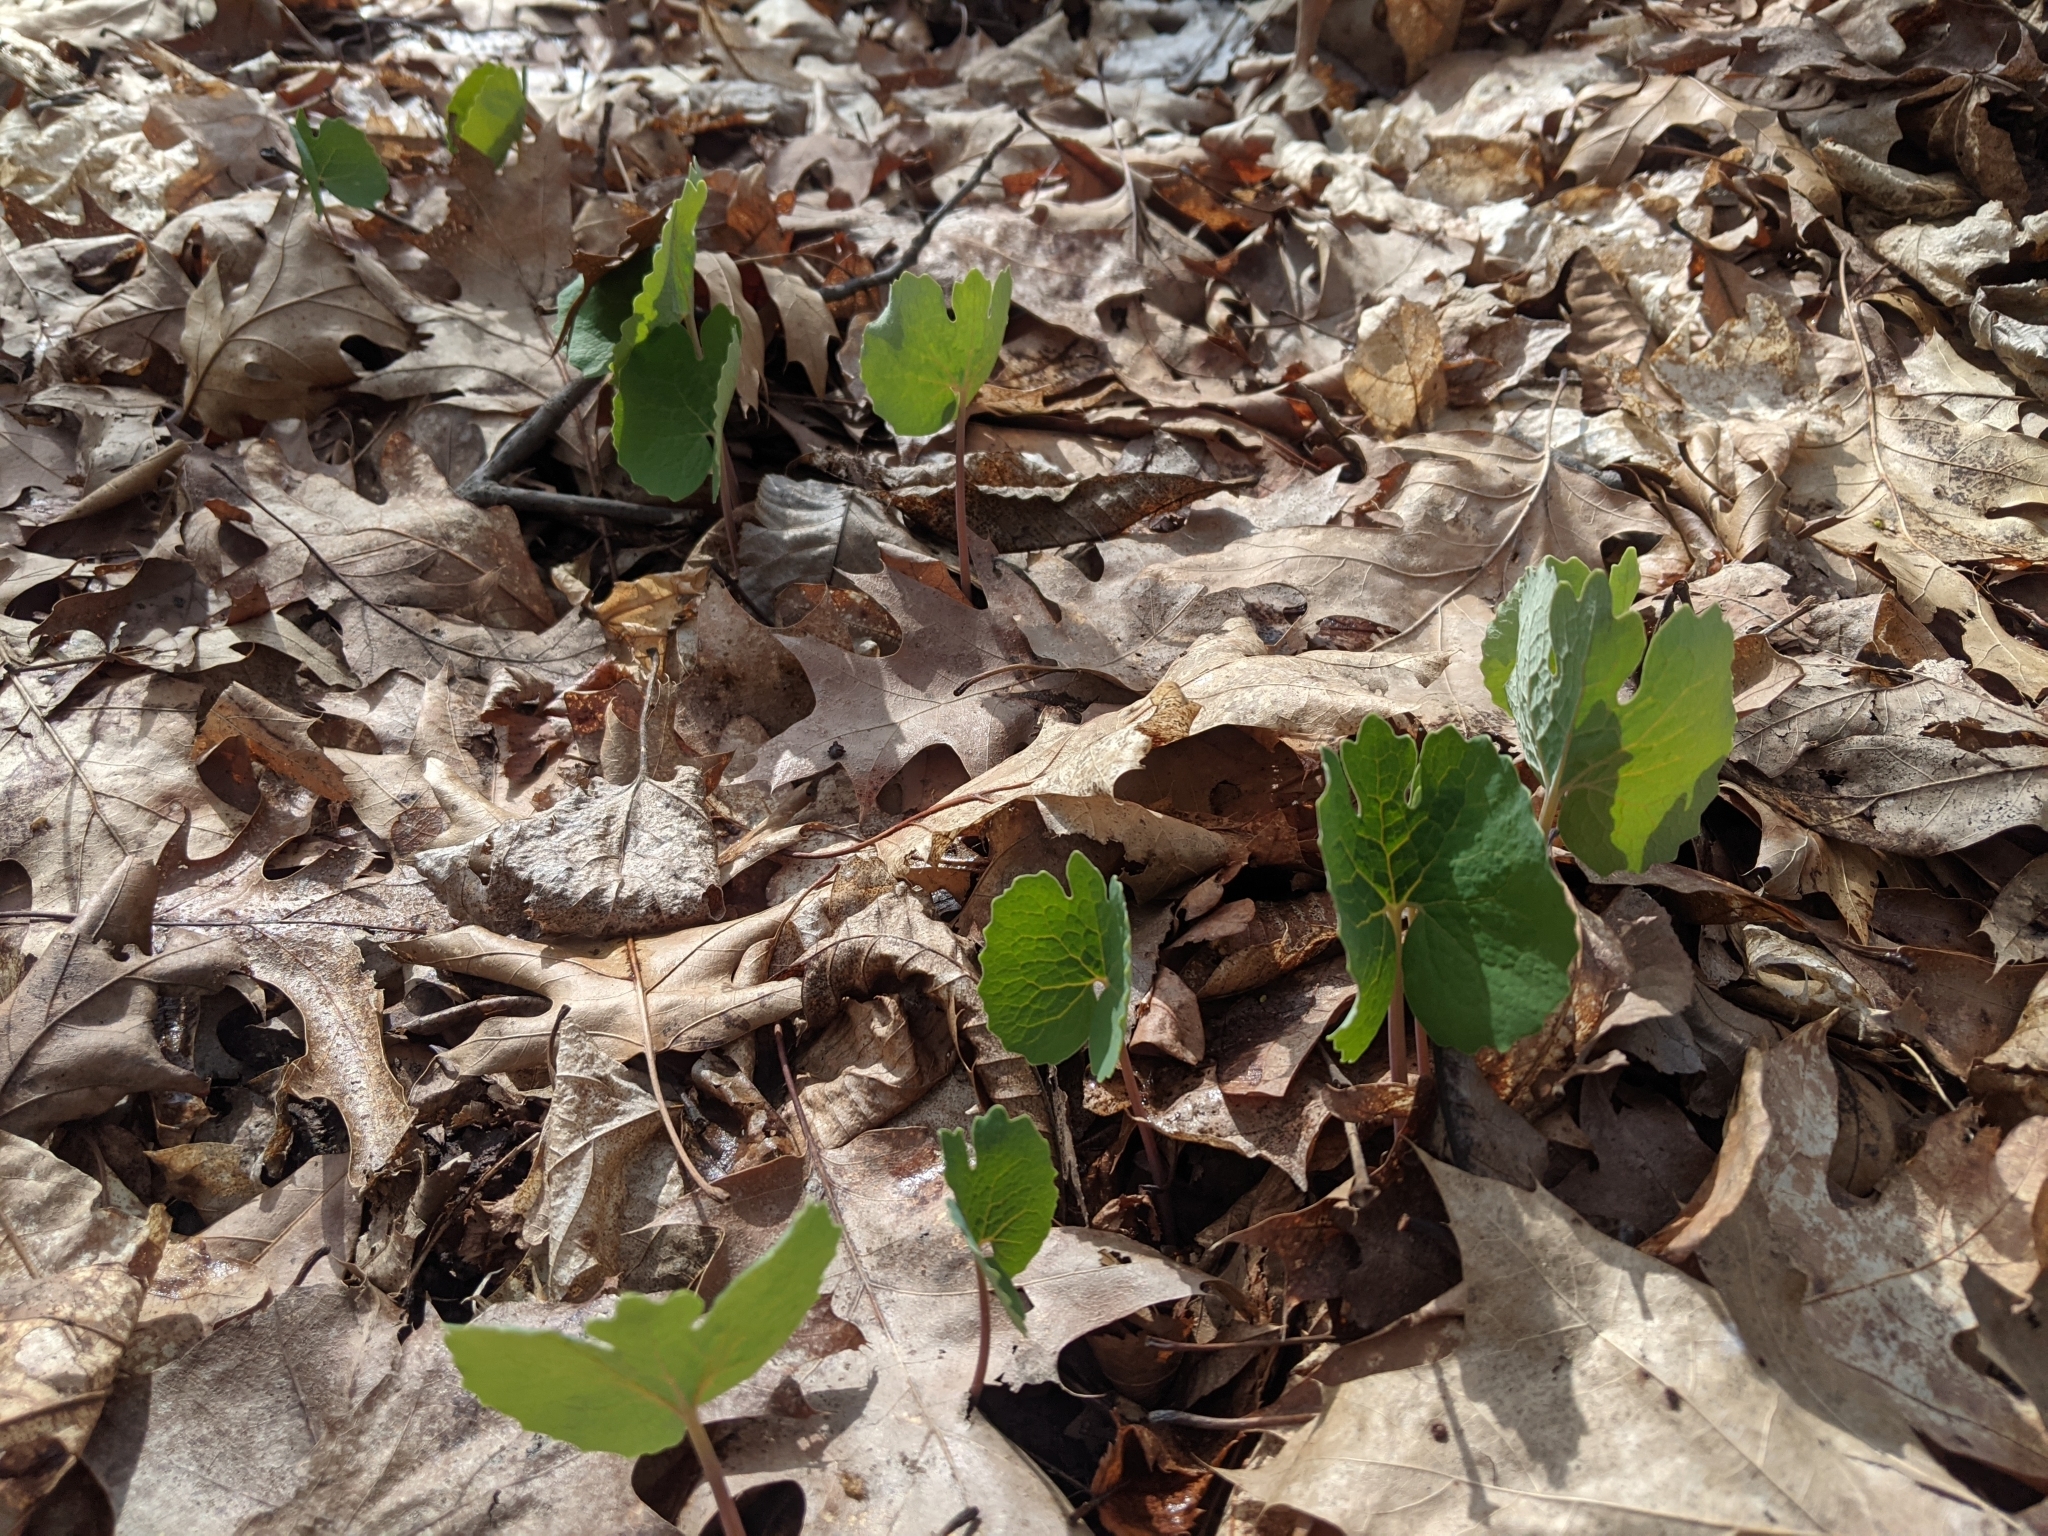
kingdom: Plantae
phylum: Tracheophyta
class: Magnoliopsida
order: Ranunculales
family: Papaveraceae
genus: Sanguinaria
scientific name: Sanguinaria canadensis
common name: Bloodroot
